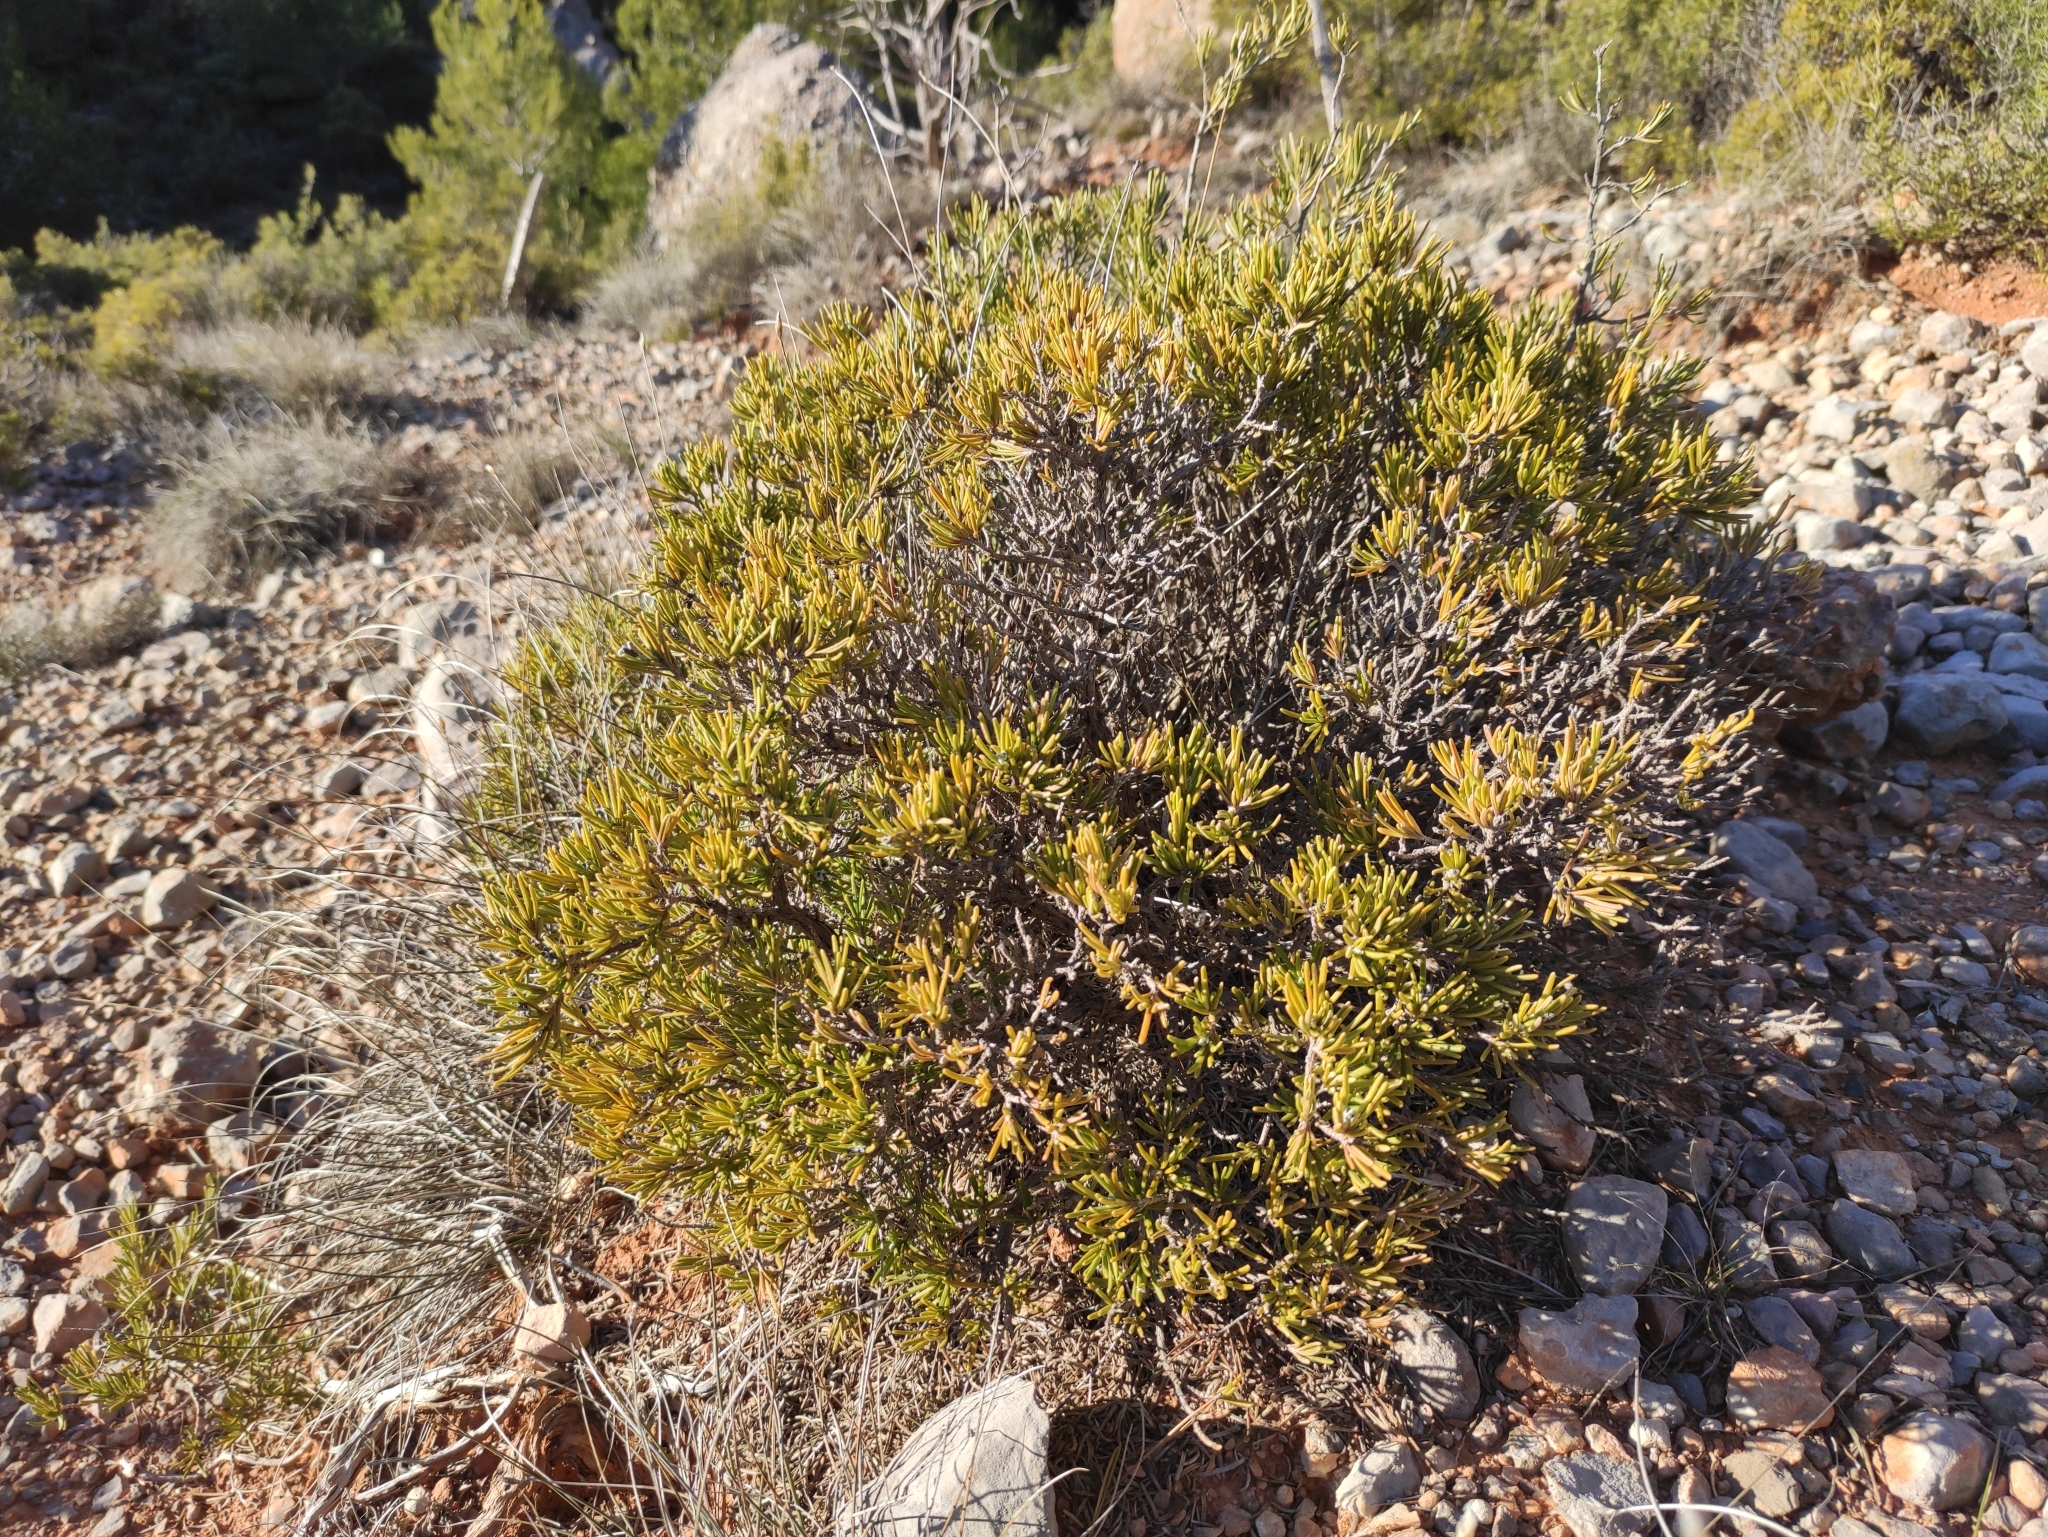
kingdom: Plantae
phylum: Tracheophyta
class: Magnoliopsida
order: Lamiales
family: Lamiaceae
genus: Salvia
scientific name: Salvia rosmarinus
